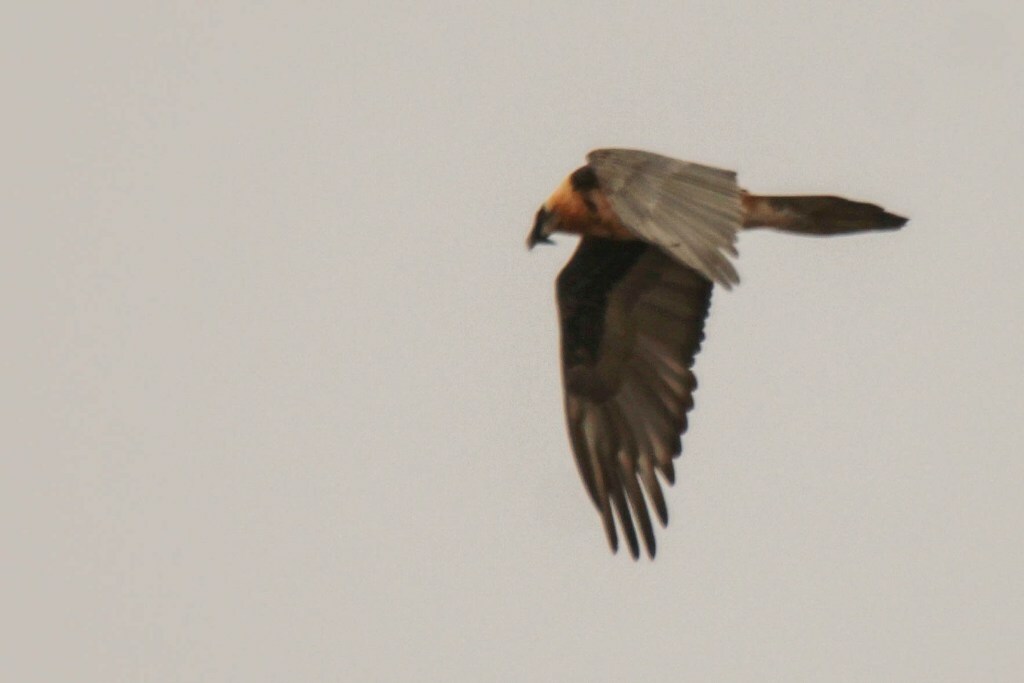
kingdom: Animalia
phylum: Chordata
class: Aves
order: Accipitriformes
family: Accipitridae
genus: Gypaetus
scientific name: Gypaetus barbatus
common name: Bearded vulture
